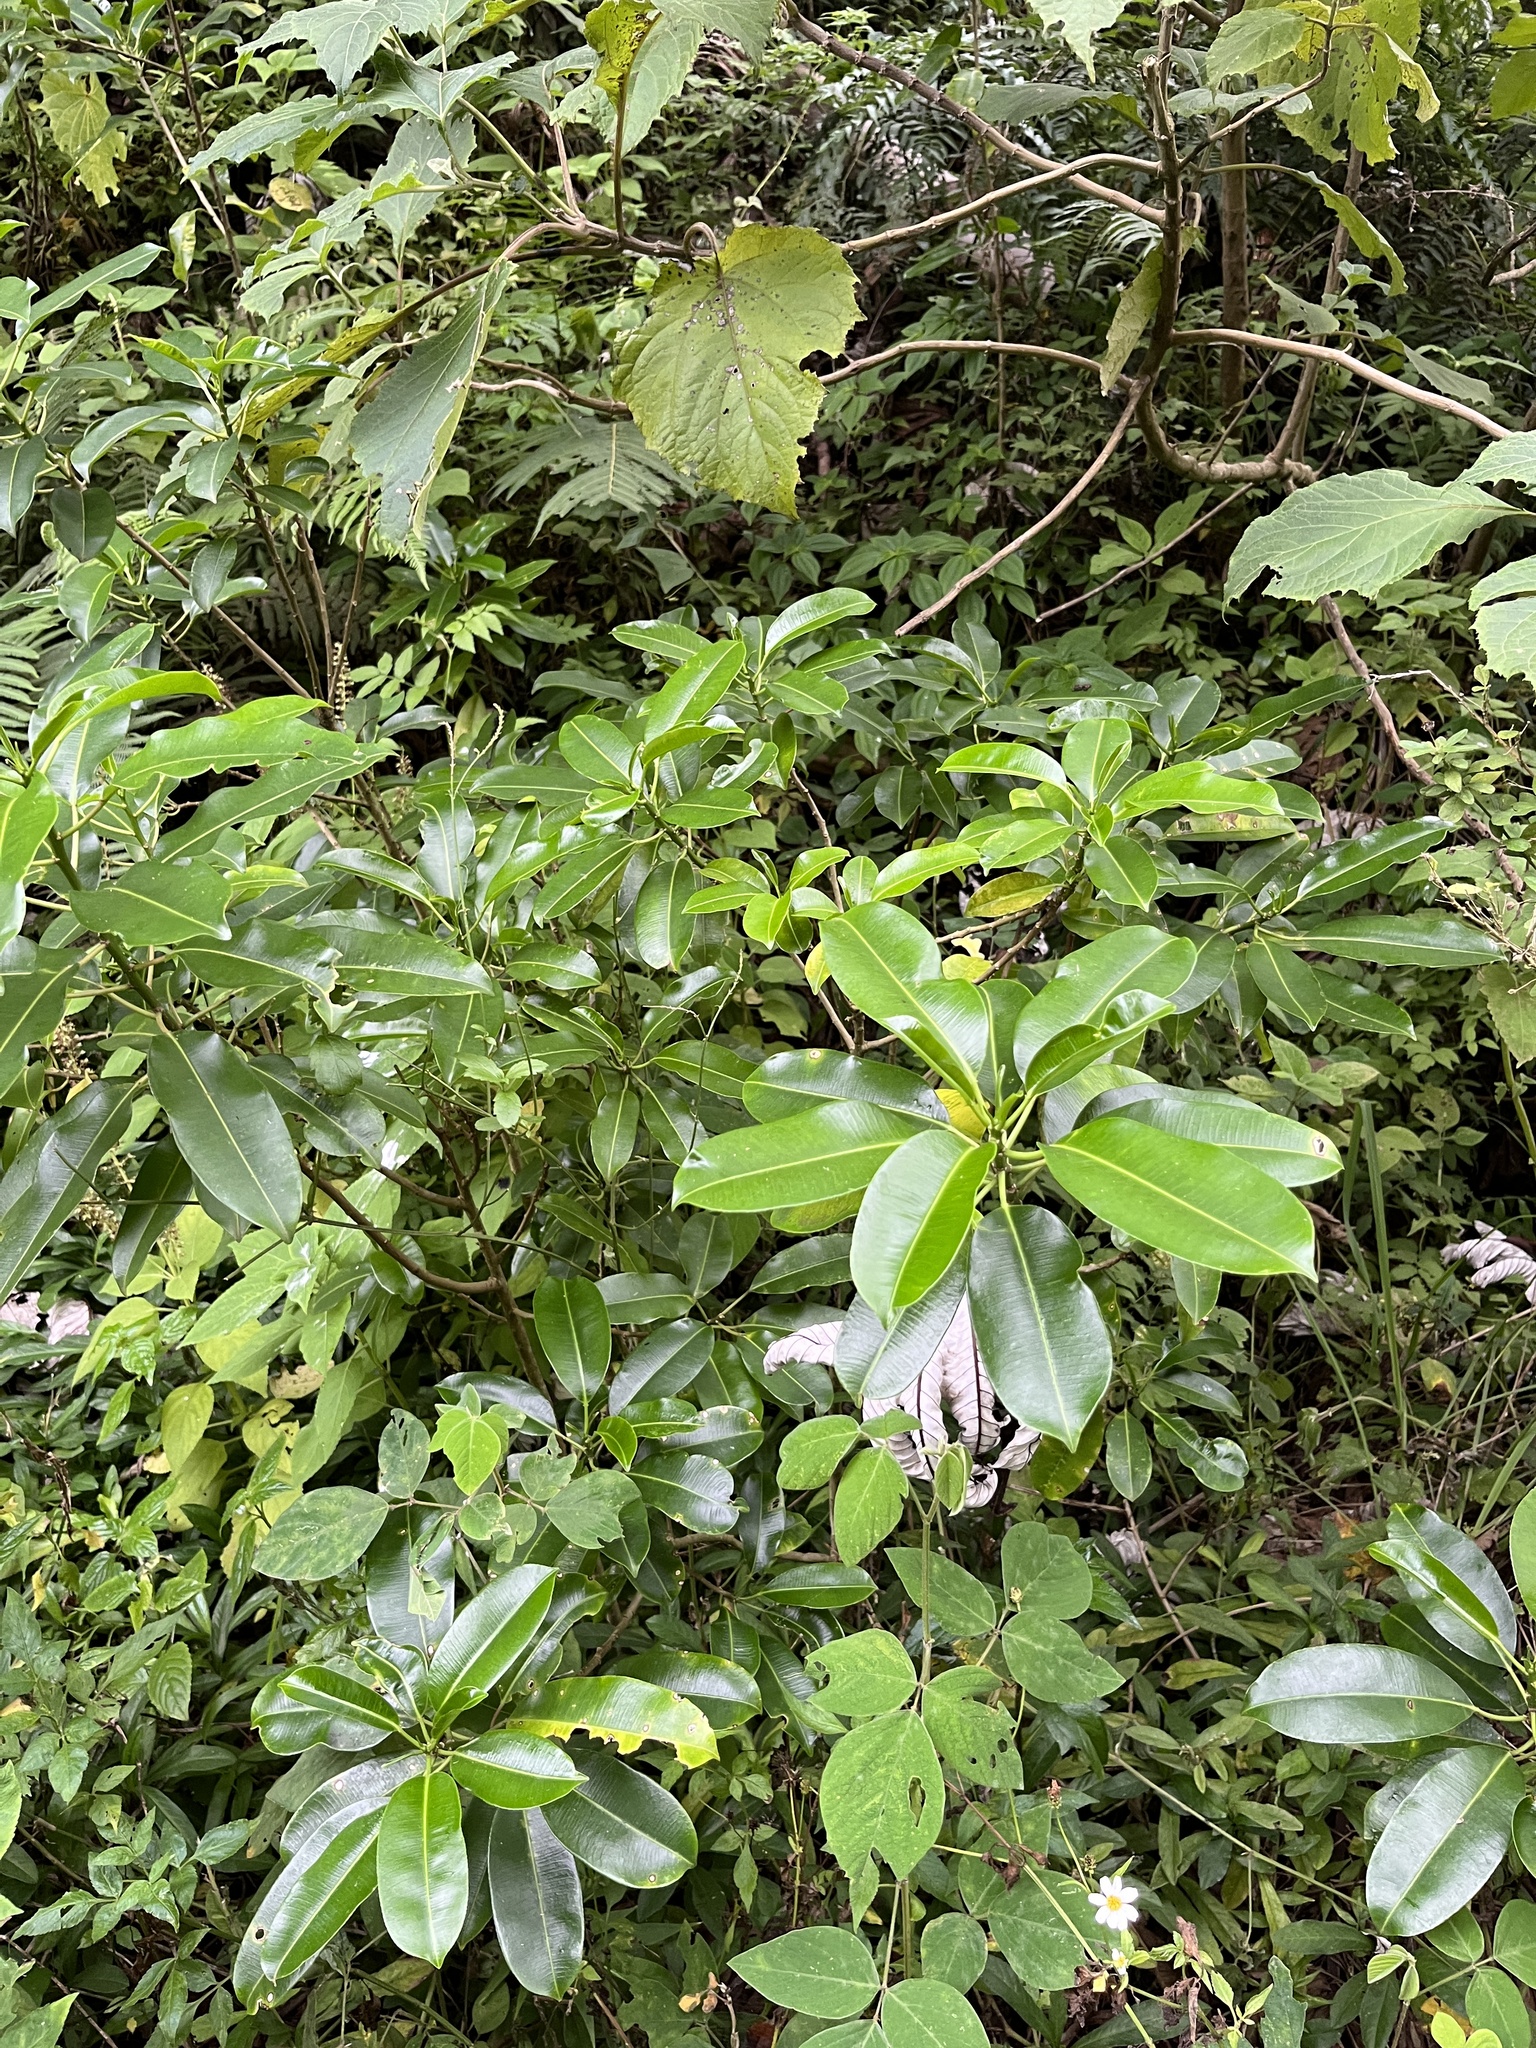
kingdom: Plantae
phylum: Tracheophyta
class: Magnoliopsida
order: Malpighiales
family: Euphorbiaceae
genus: Sapium
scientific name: Sapium laurocerasus
